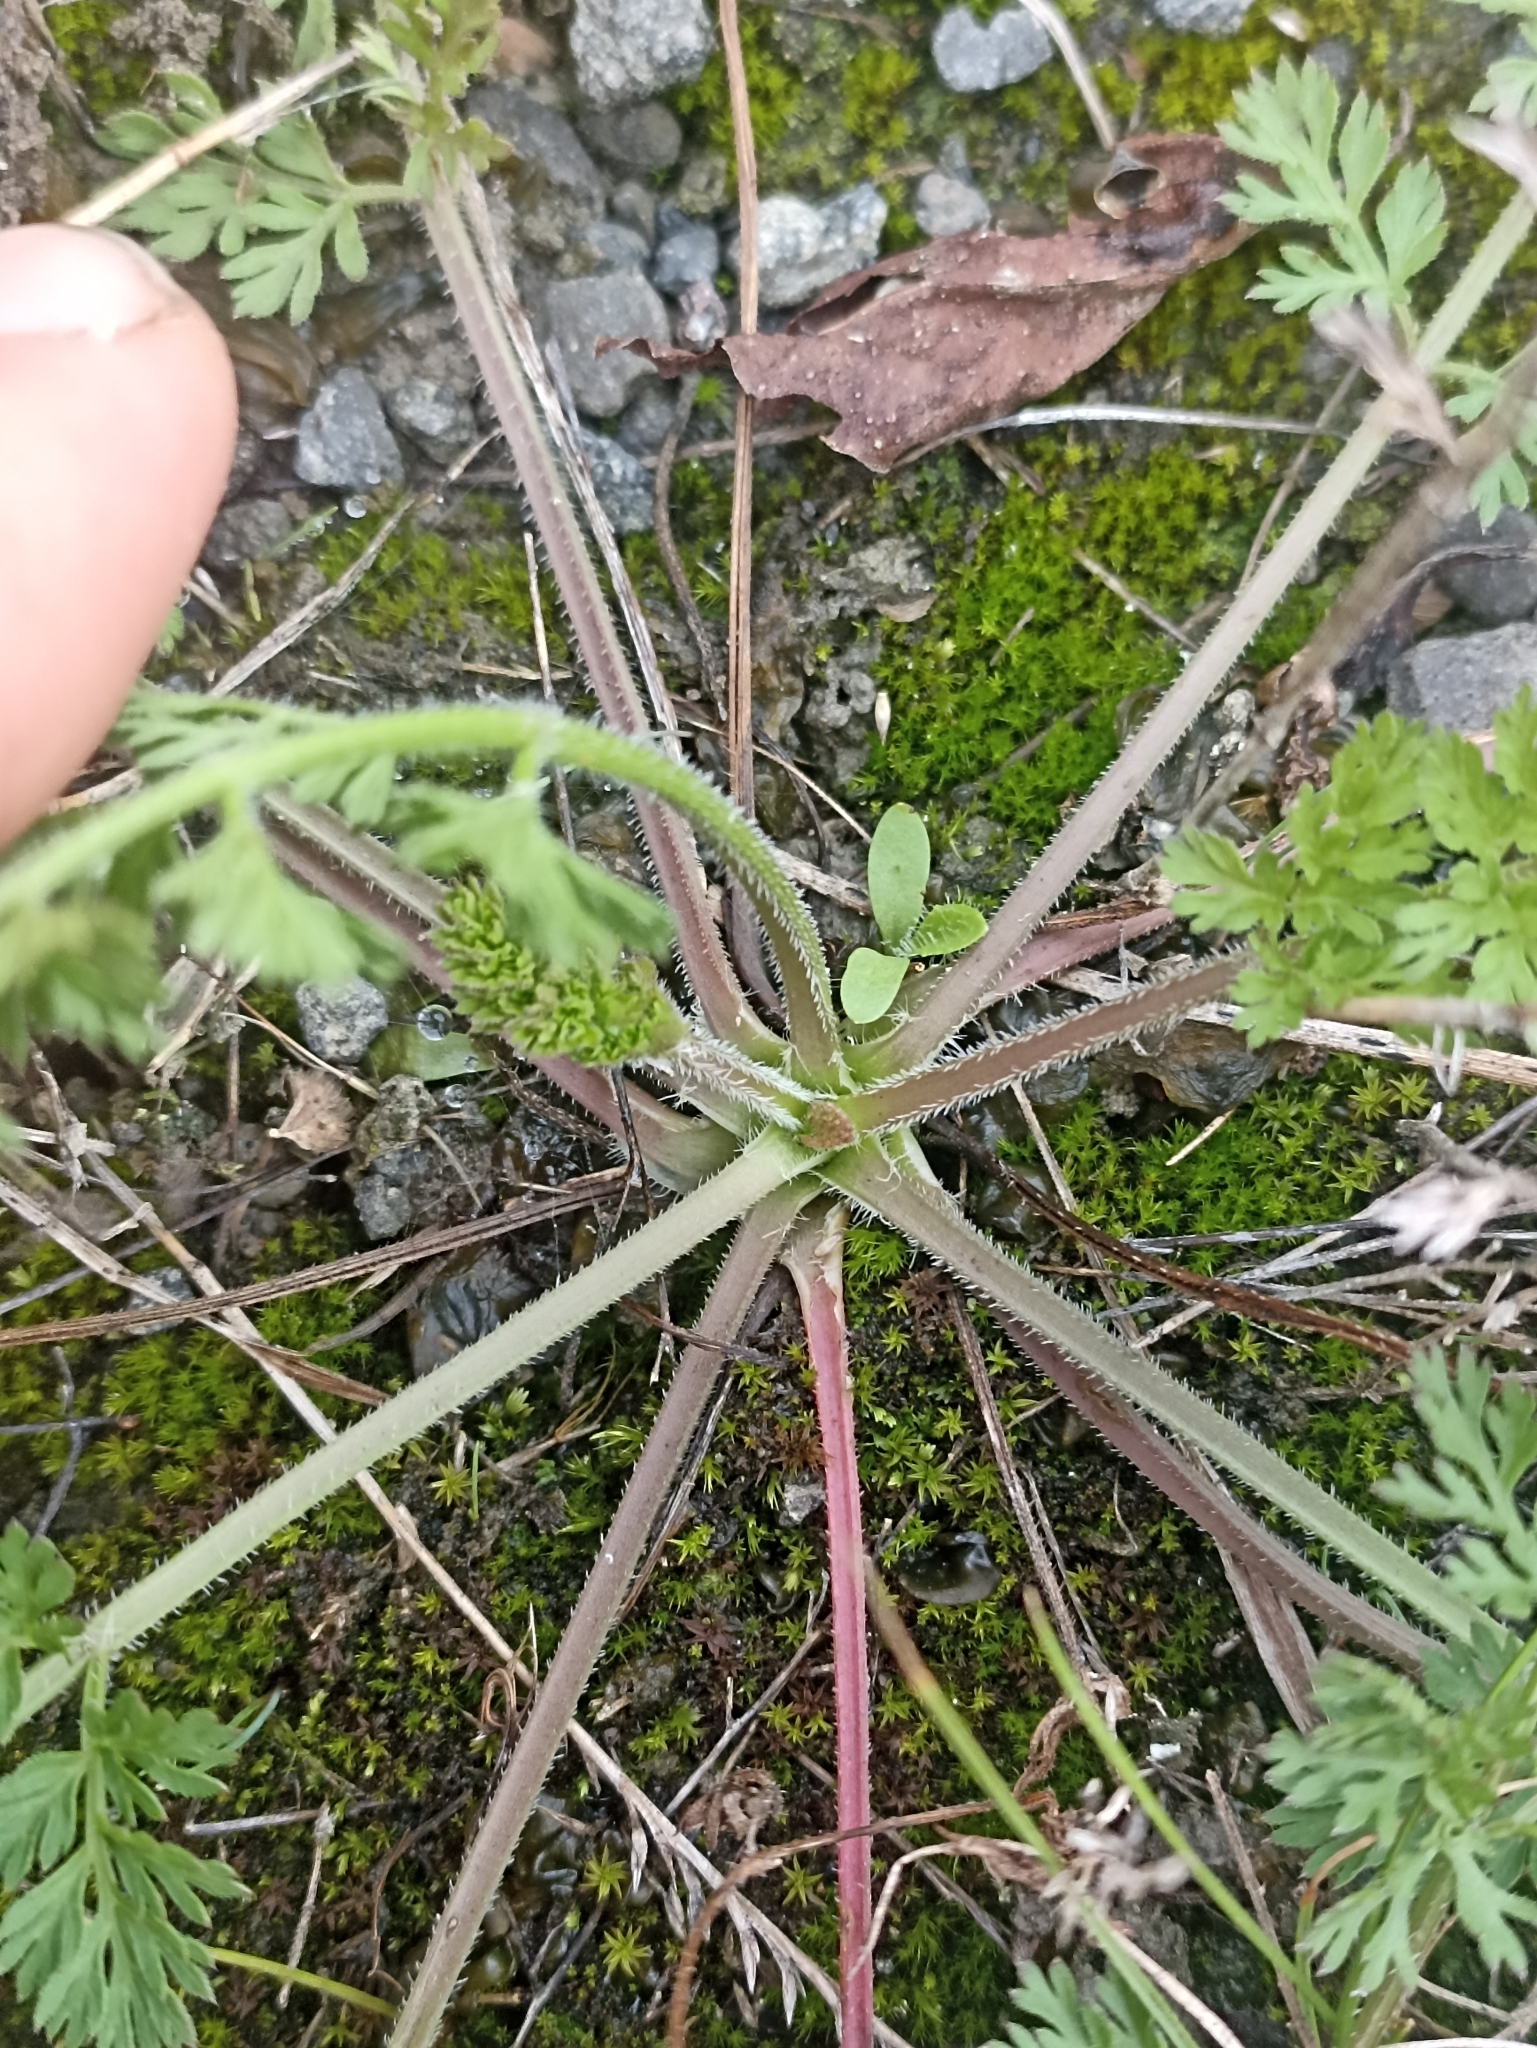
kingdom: Plantae
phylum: Tracheophyta
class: Magnoliopsida
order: Apiales
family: Apiaceae
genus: Daucus
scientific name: Daucus carota
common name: Wild carrot
